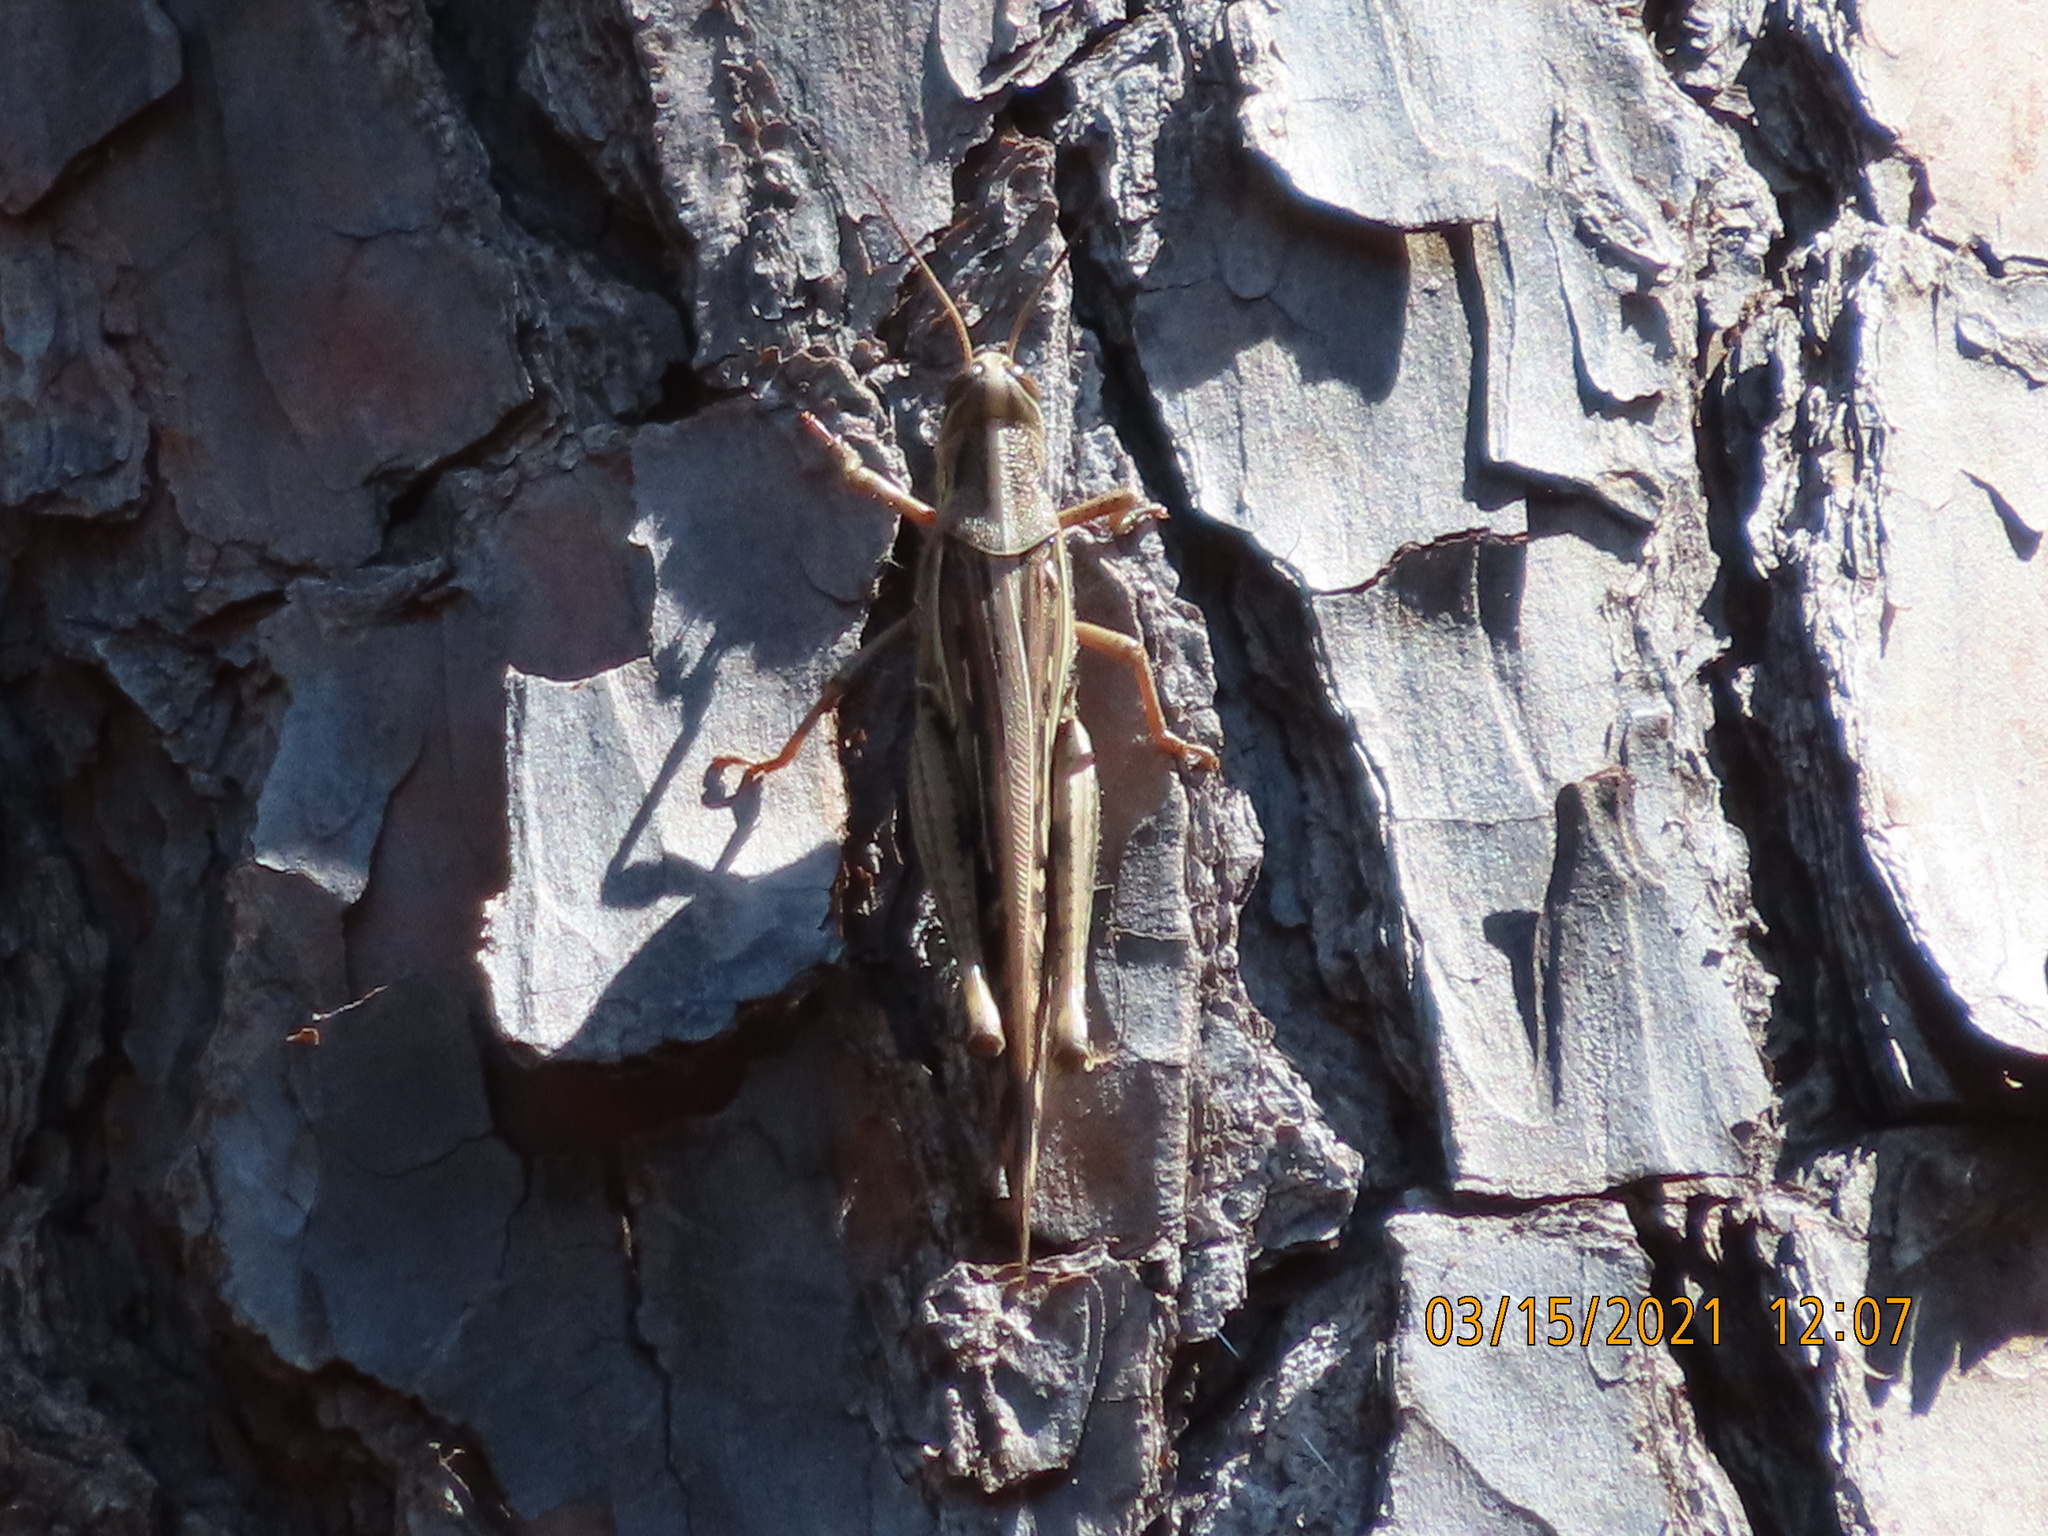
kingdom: Animalia
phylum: Arthropoda
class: Insecta
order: Orthoptera
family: Acrididae
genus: Schistocerca
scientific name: Schistocerca americana
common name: American bird locust
